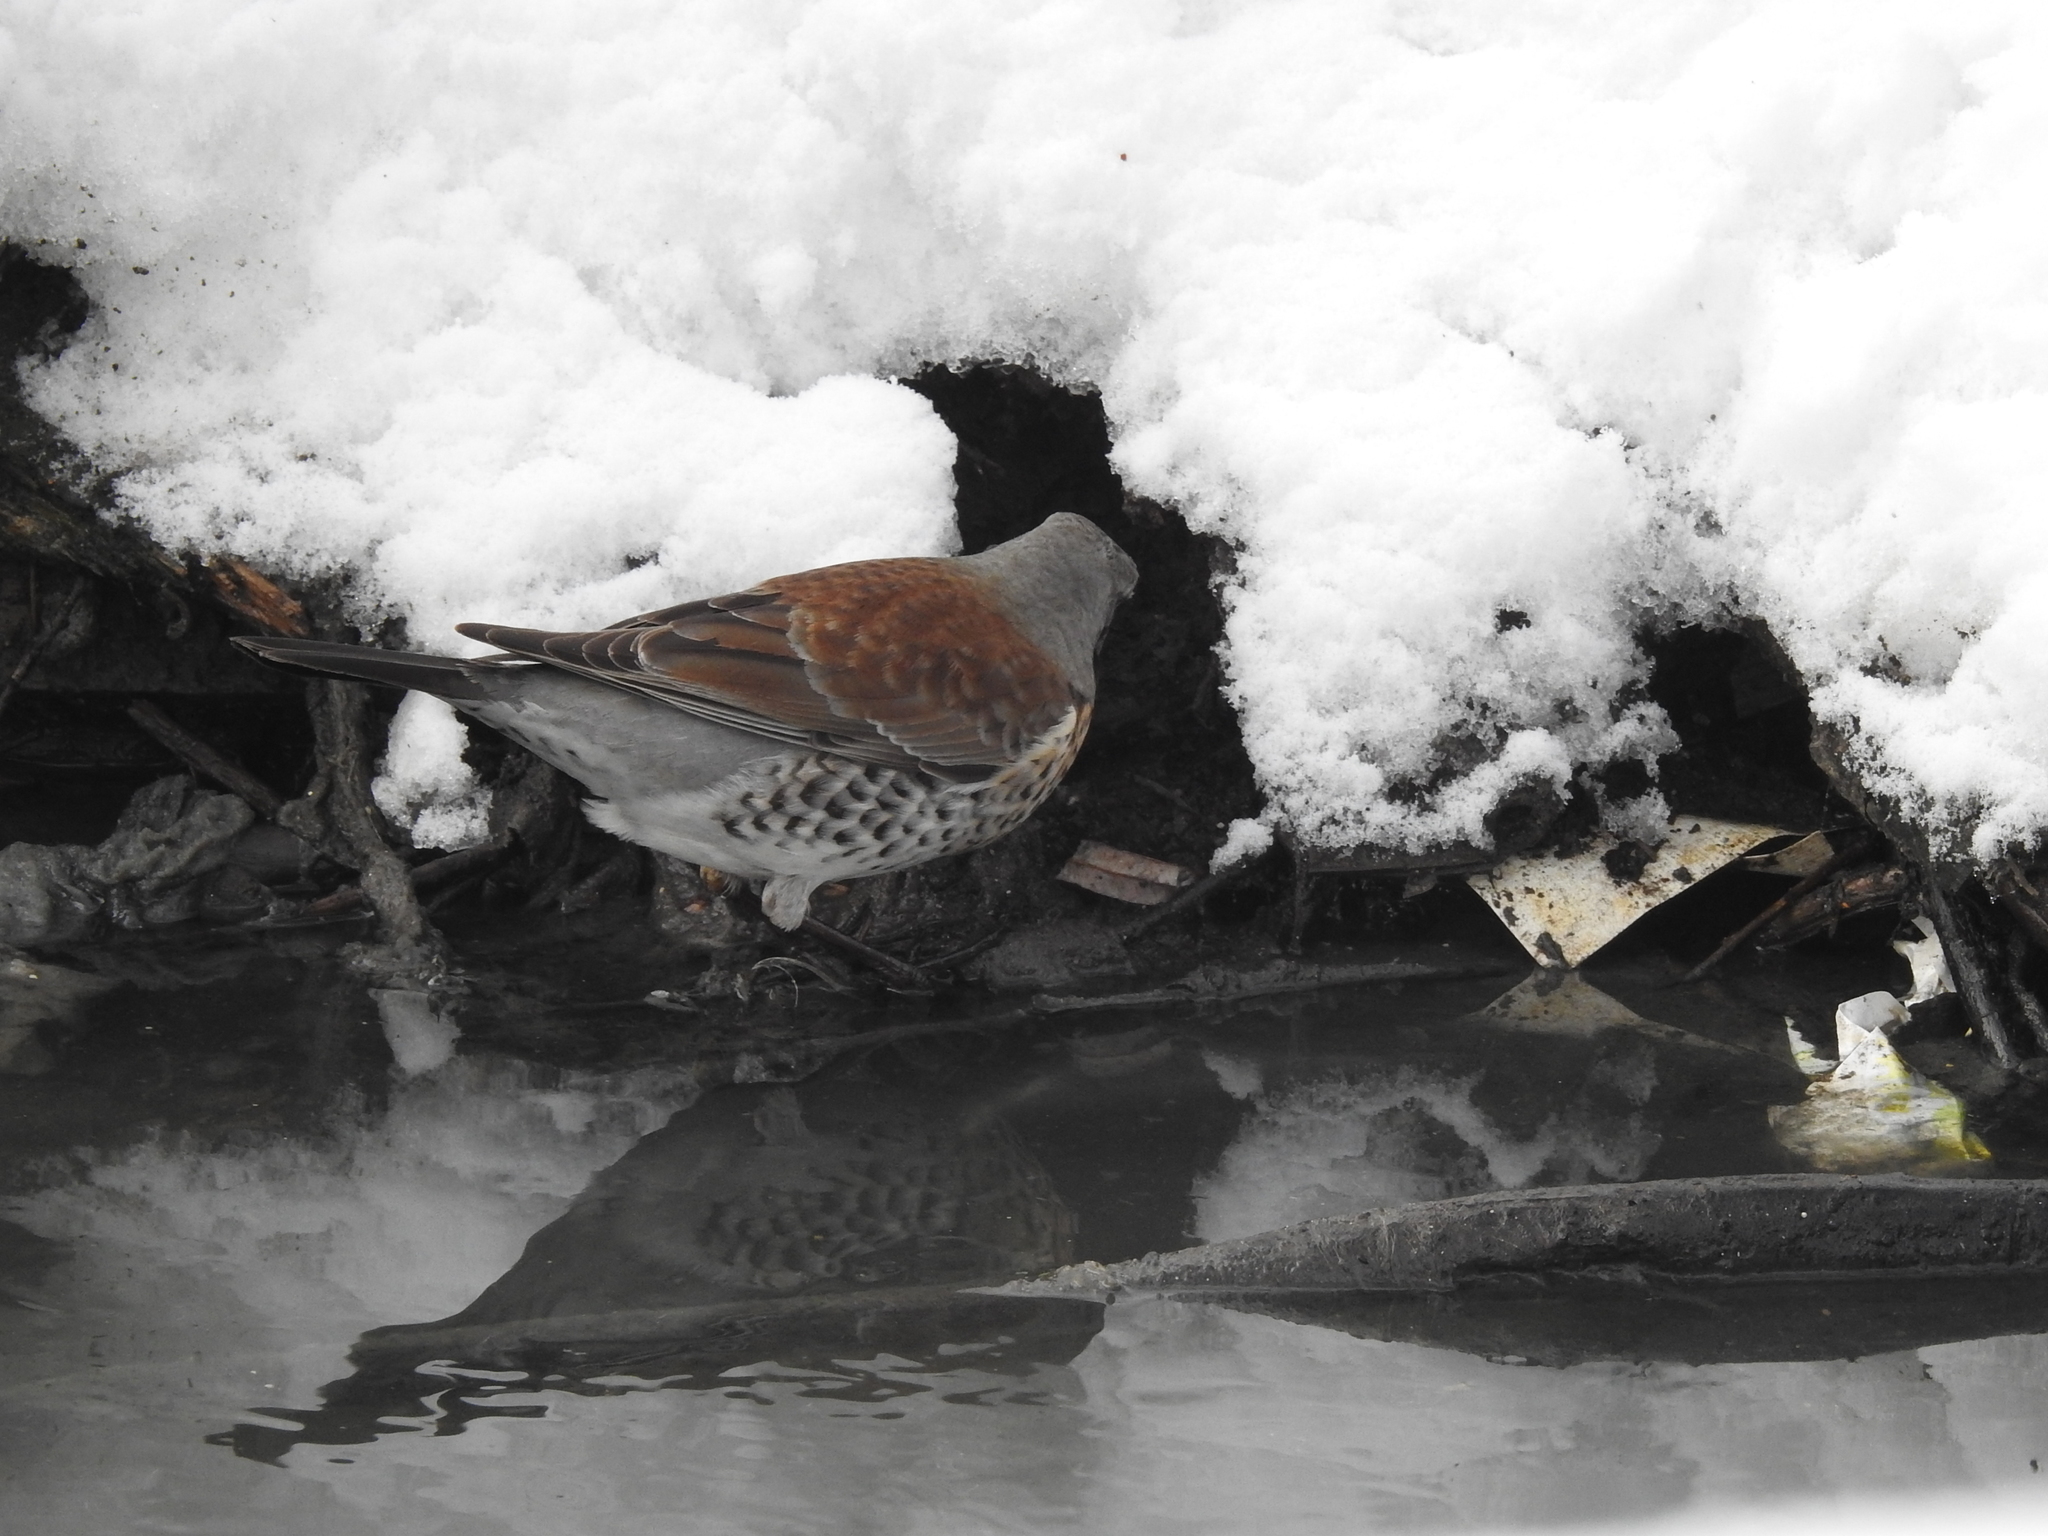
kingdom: Animalia
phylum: Chordata
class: Aves
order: Passeriformes
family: Turdidae
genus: Turdus
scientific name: Turdus pilaris
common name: Fieldfare
